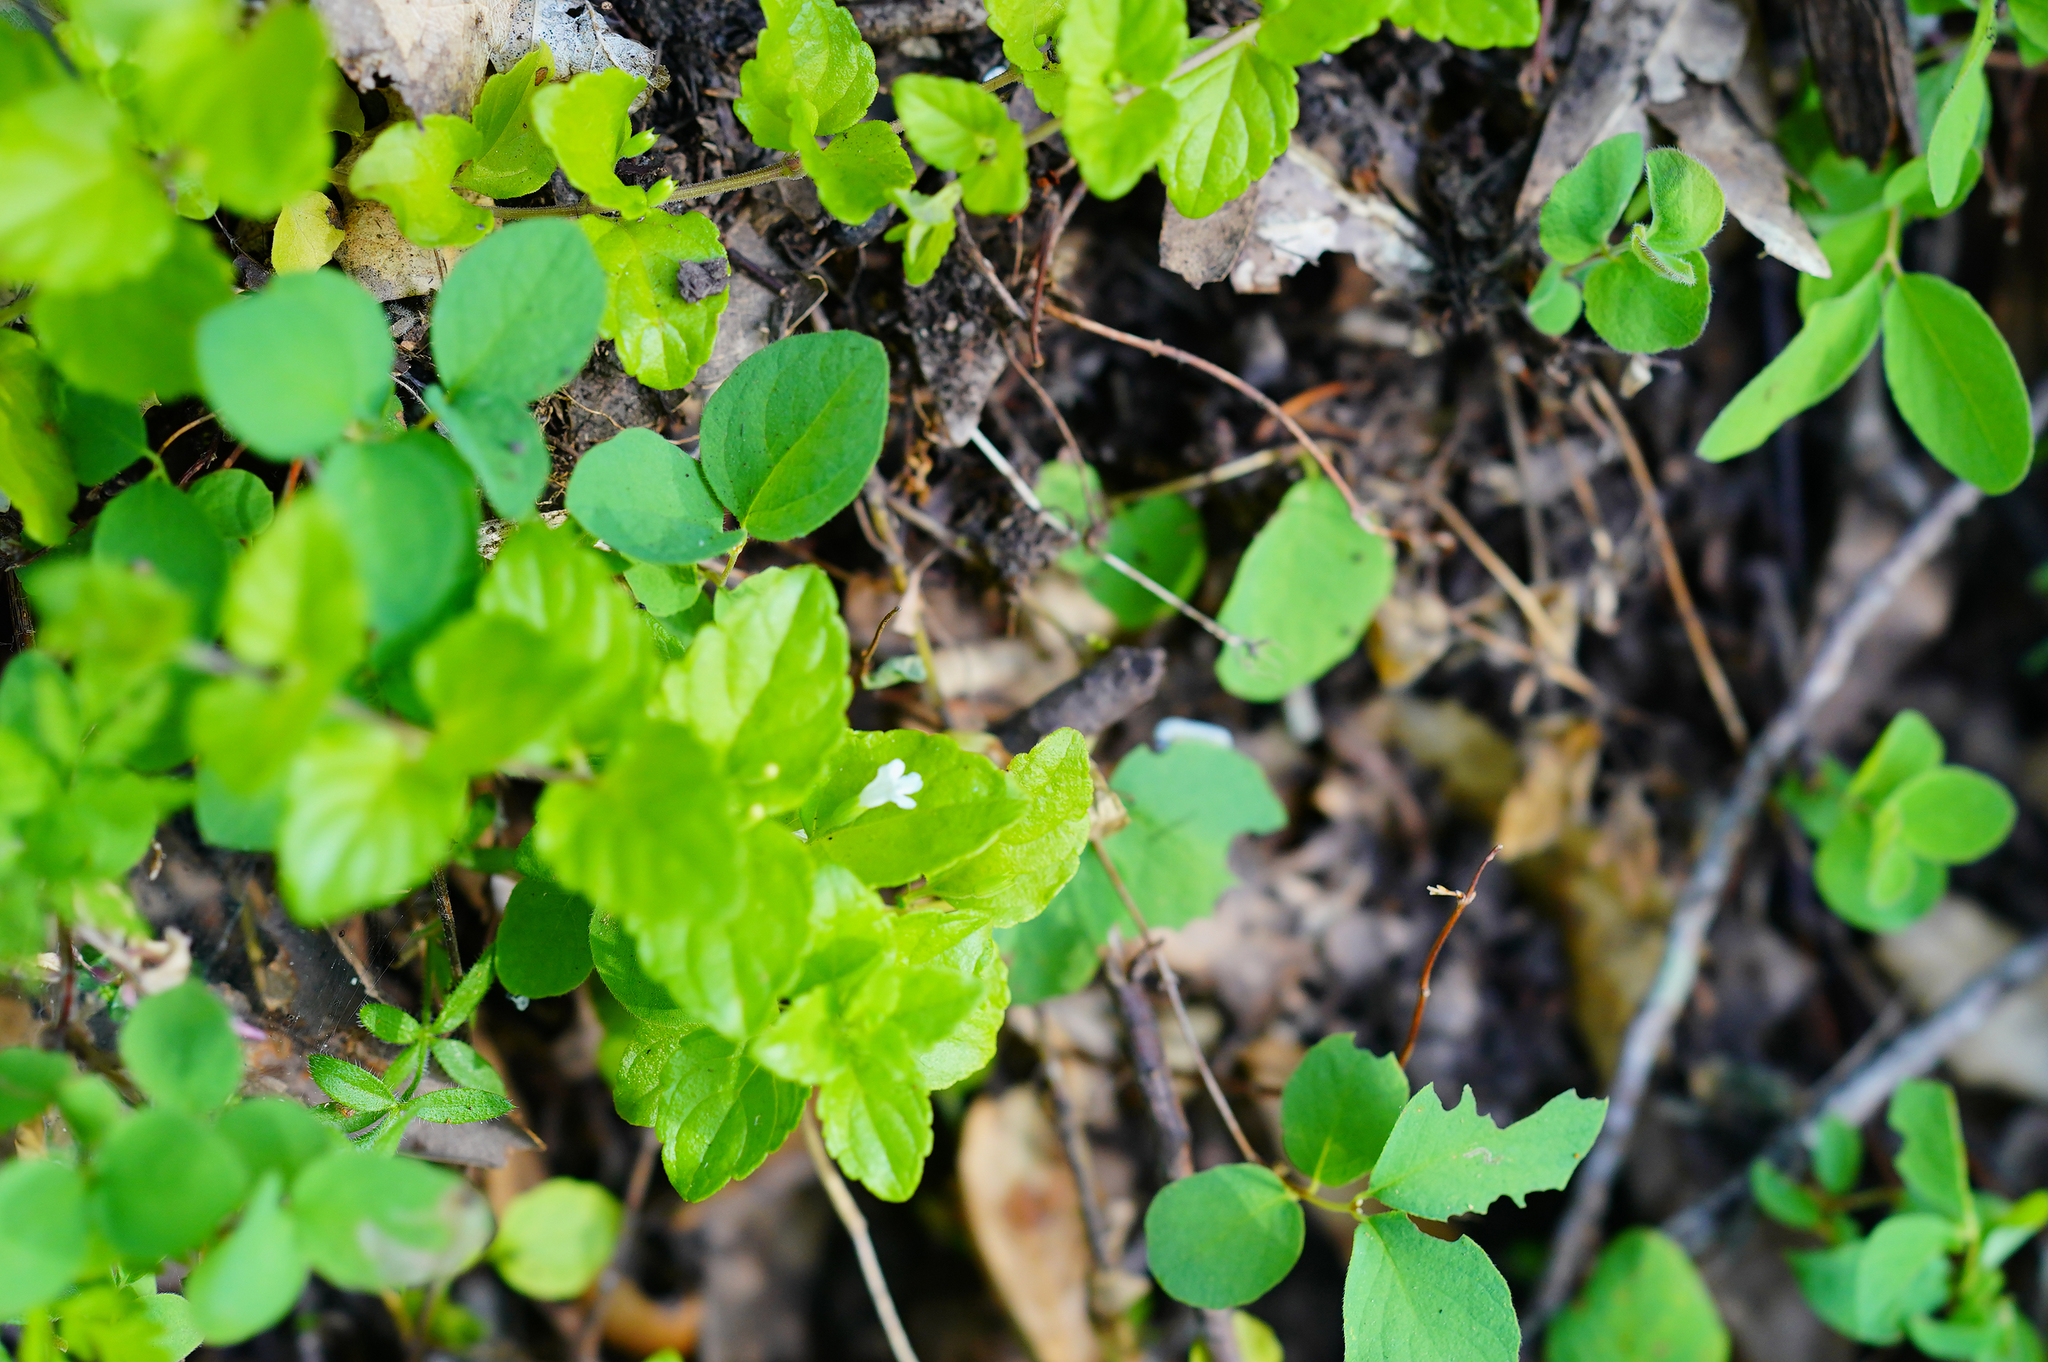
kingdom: Plantae
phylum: Tracheophyta
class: Magnoliopsida
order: Lamiales
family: Lamiaceae
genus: Micromeria
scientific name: Micromeria douglasii
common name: Yerba buena
